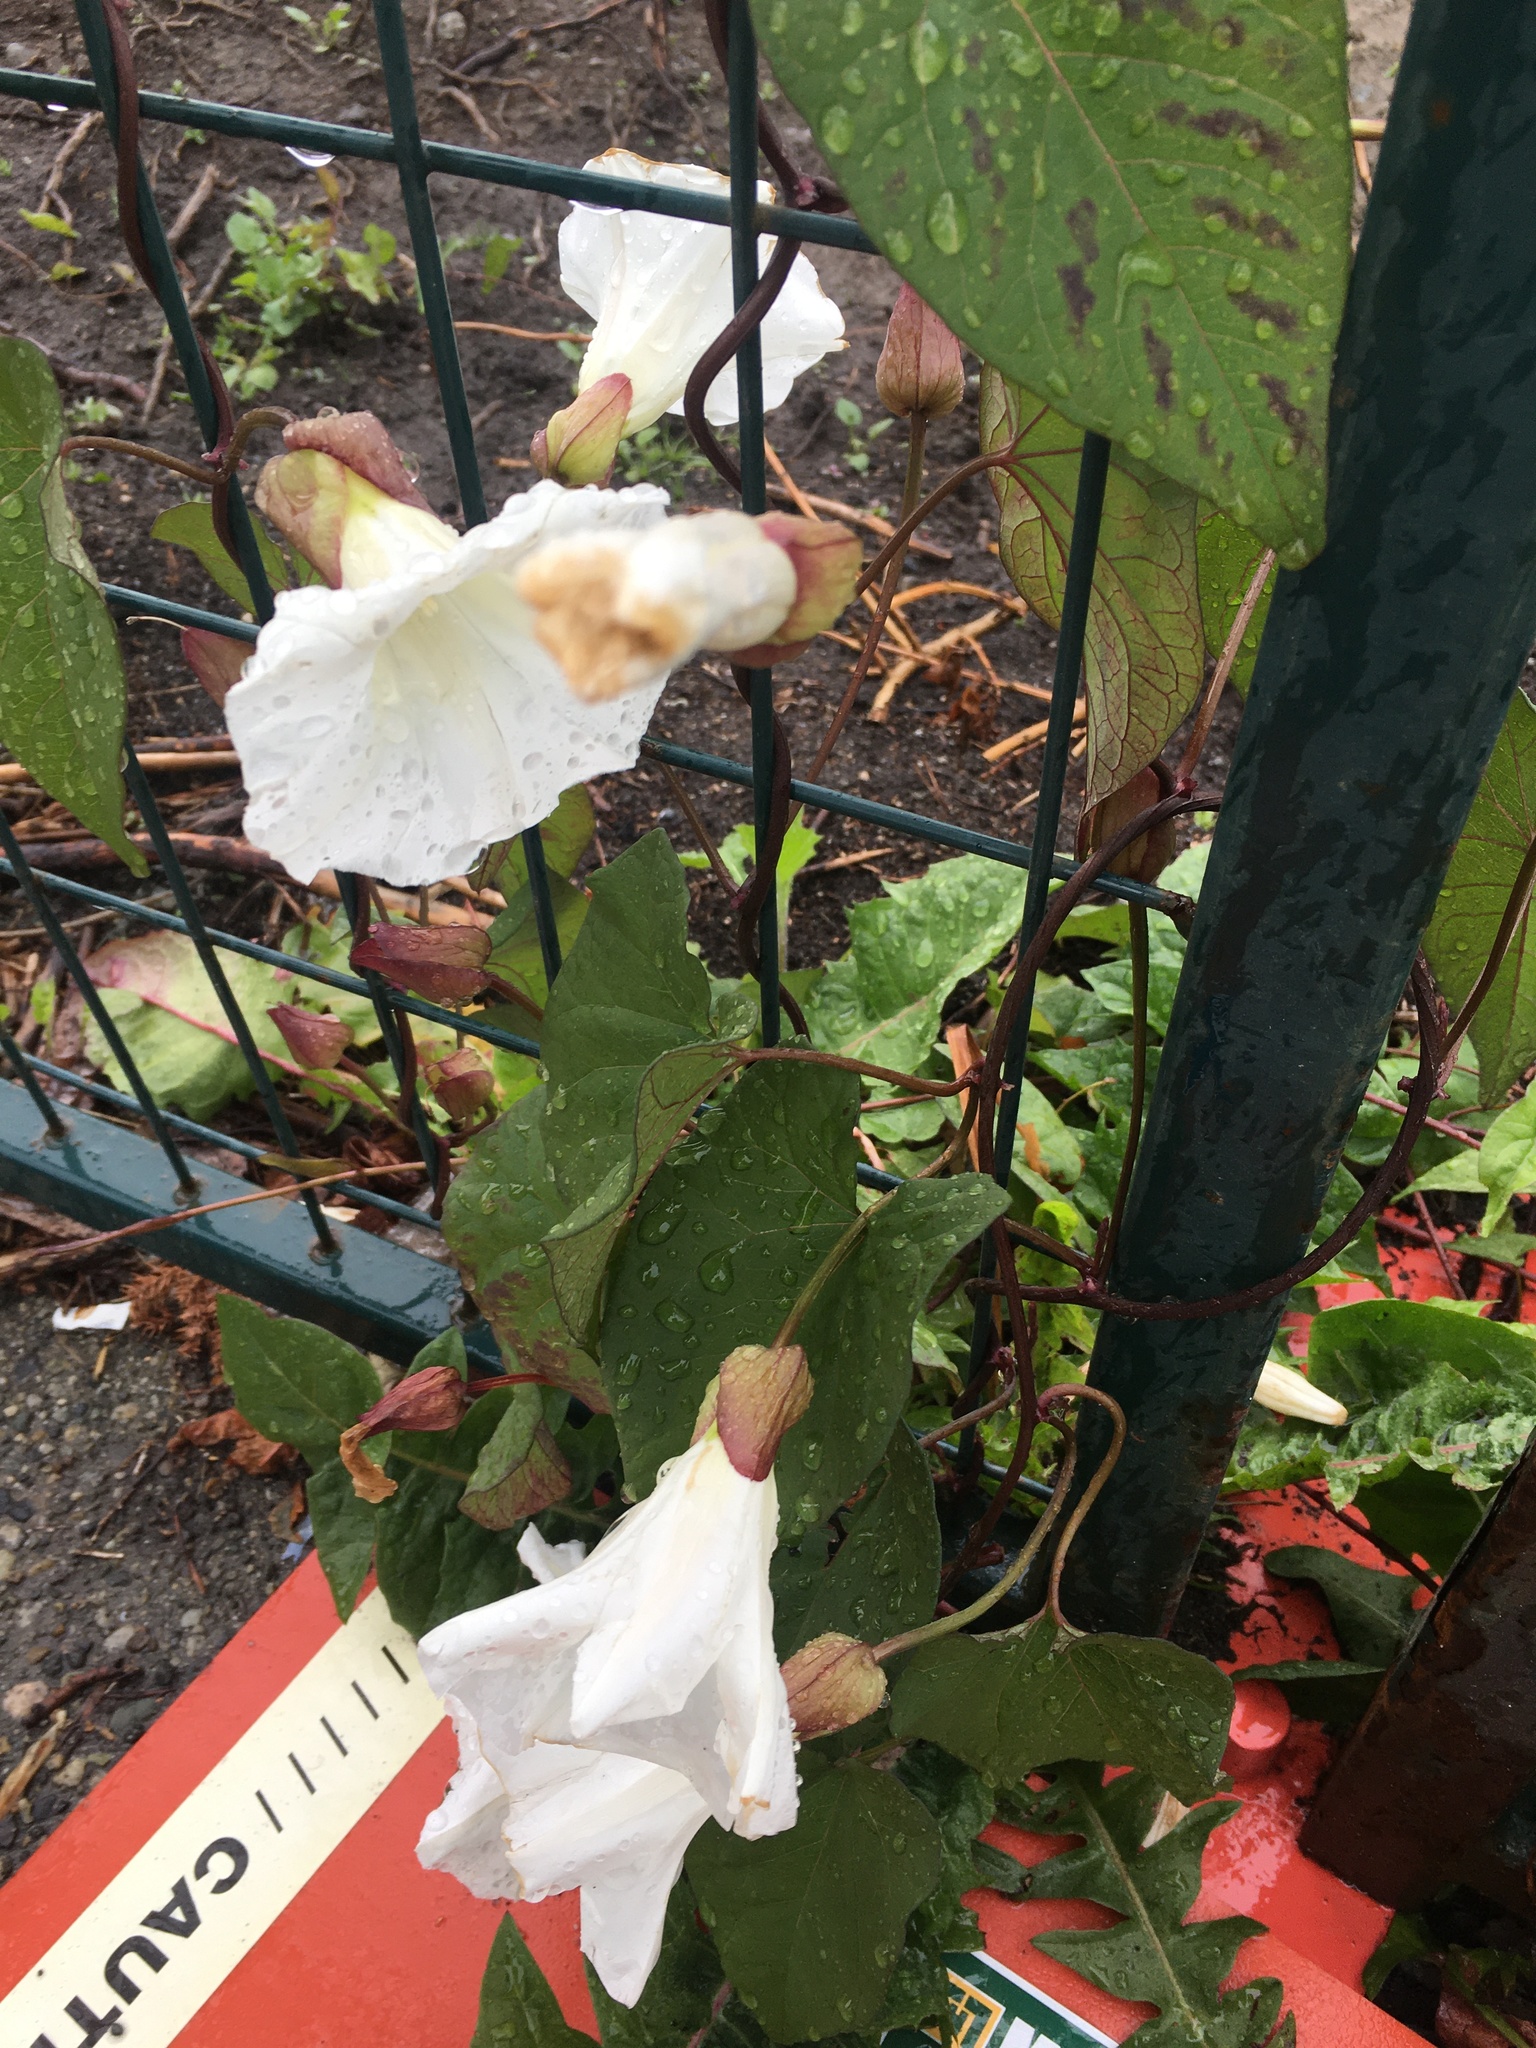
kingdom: Plantae
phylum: Tracheophyta
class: Magnoliopsida
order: Solanales
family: Convolvulaceae
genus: Calystegia
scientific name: Calystegia silvatica
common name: Large bindweed
